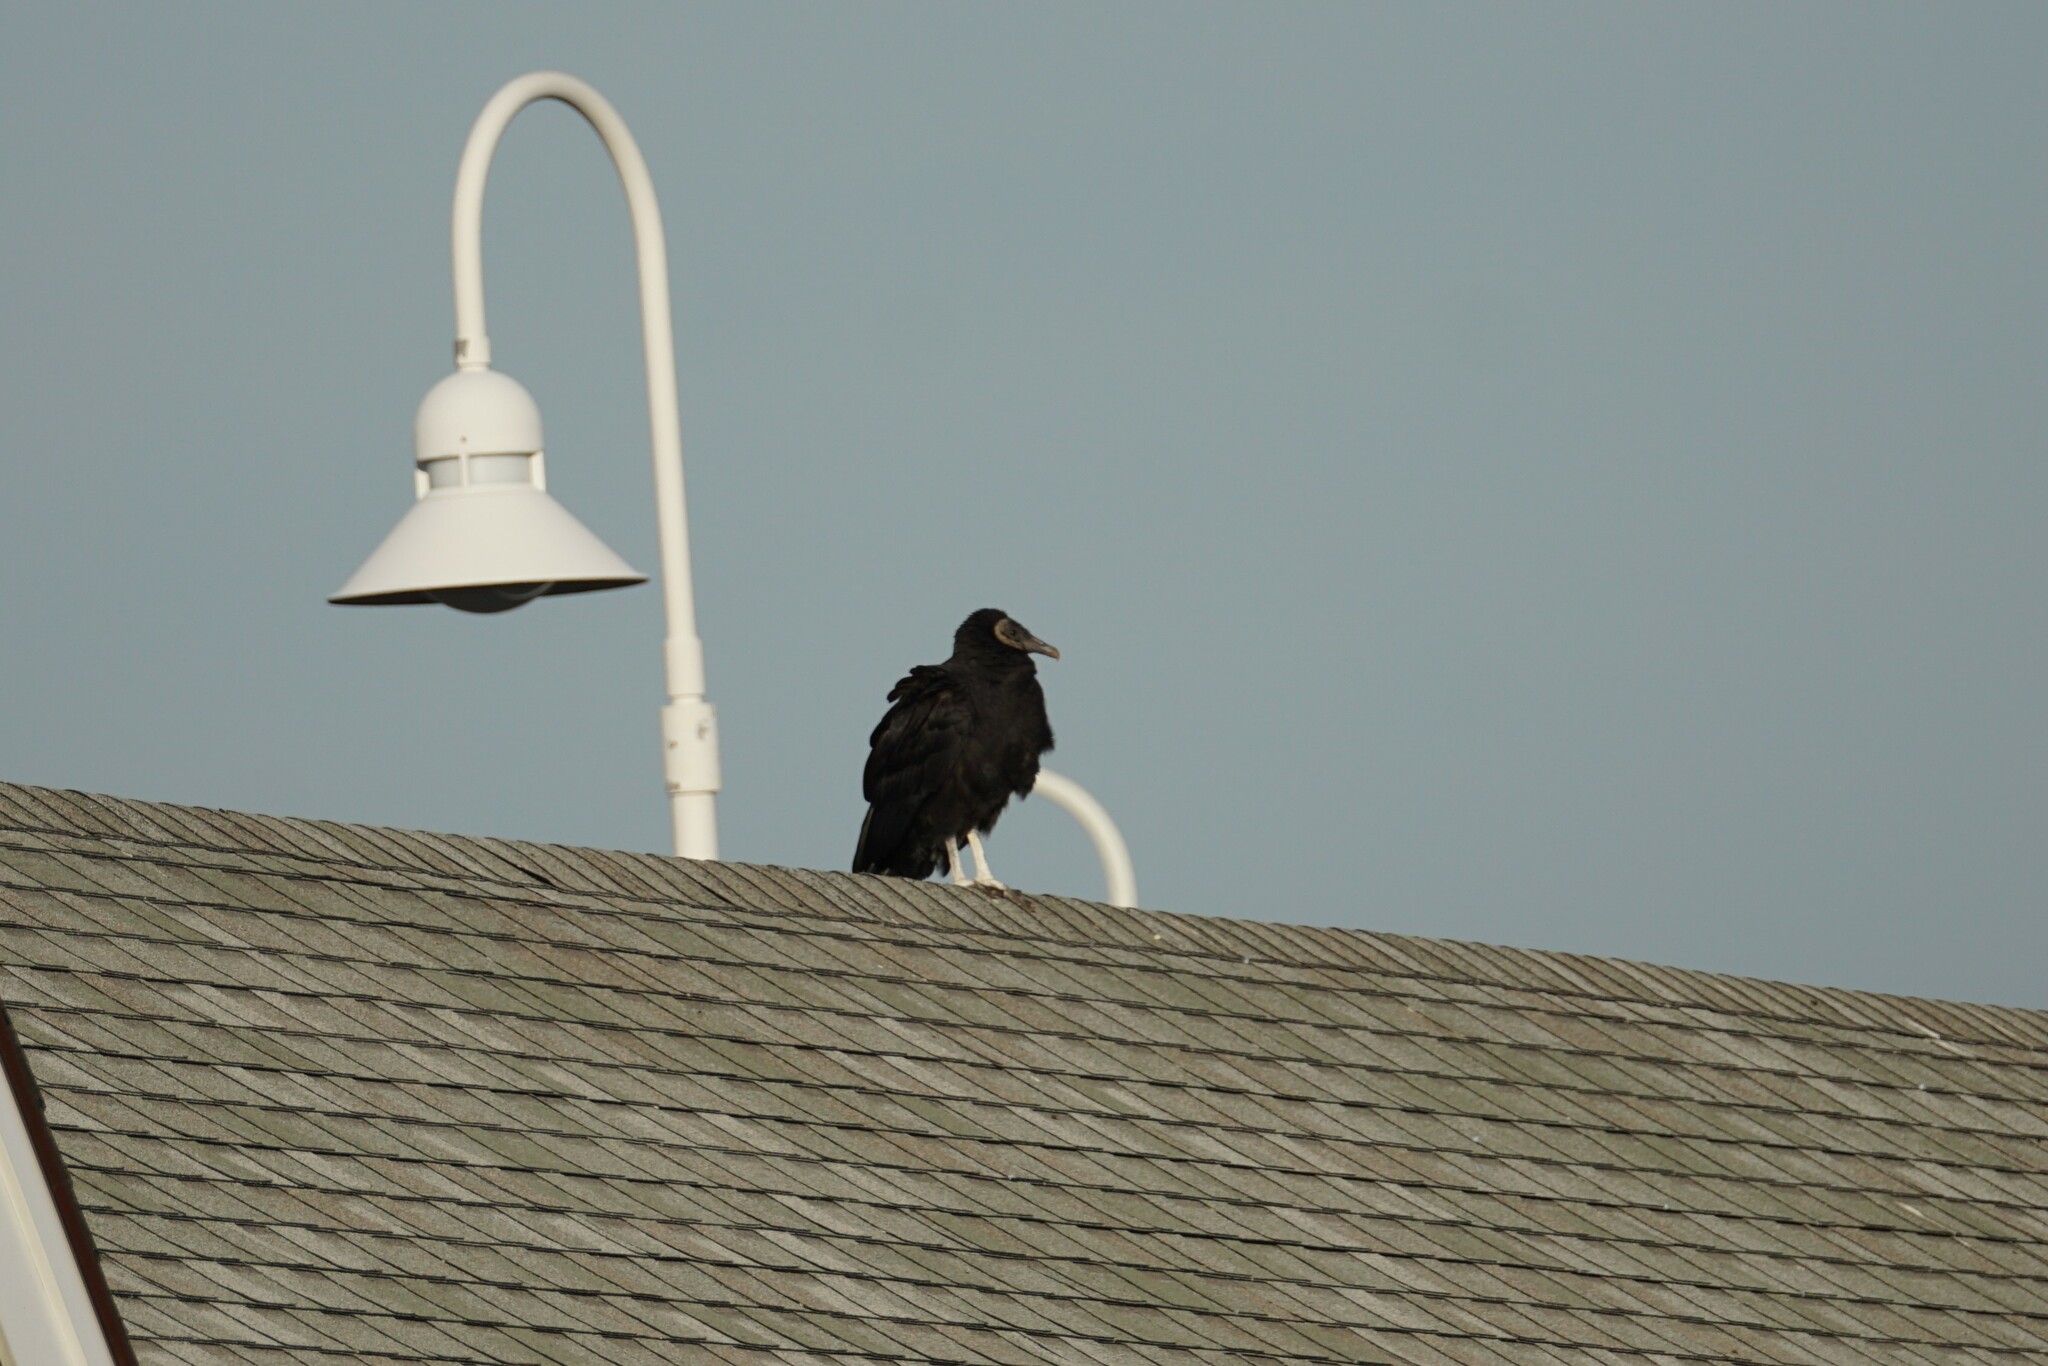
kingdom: Animalia
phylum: Chordata
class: Aves
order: Accipitriformes
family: Cathartidae
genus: Coragyps
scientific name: Coragyps atratus
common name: Black vulture
